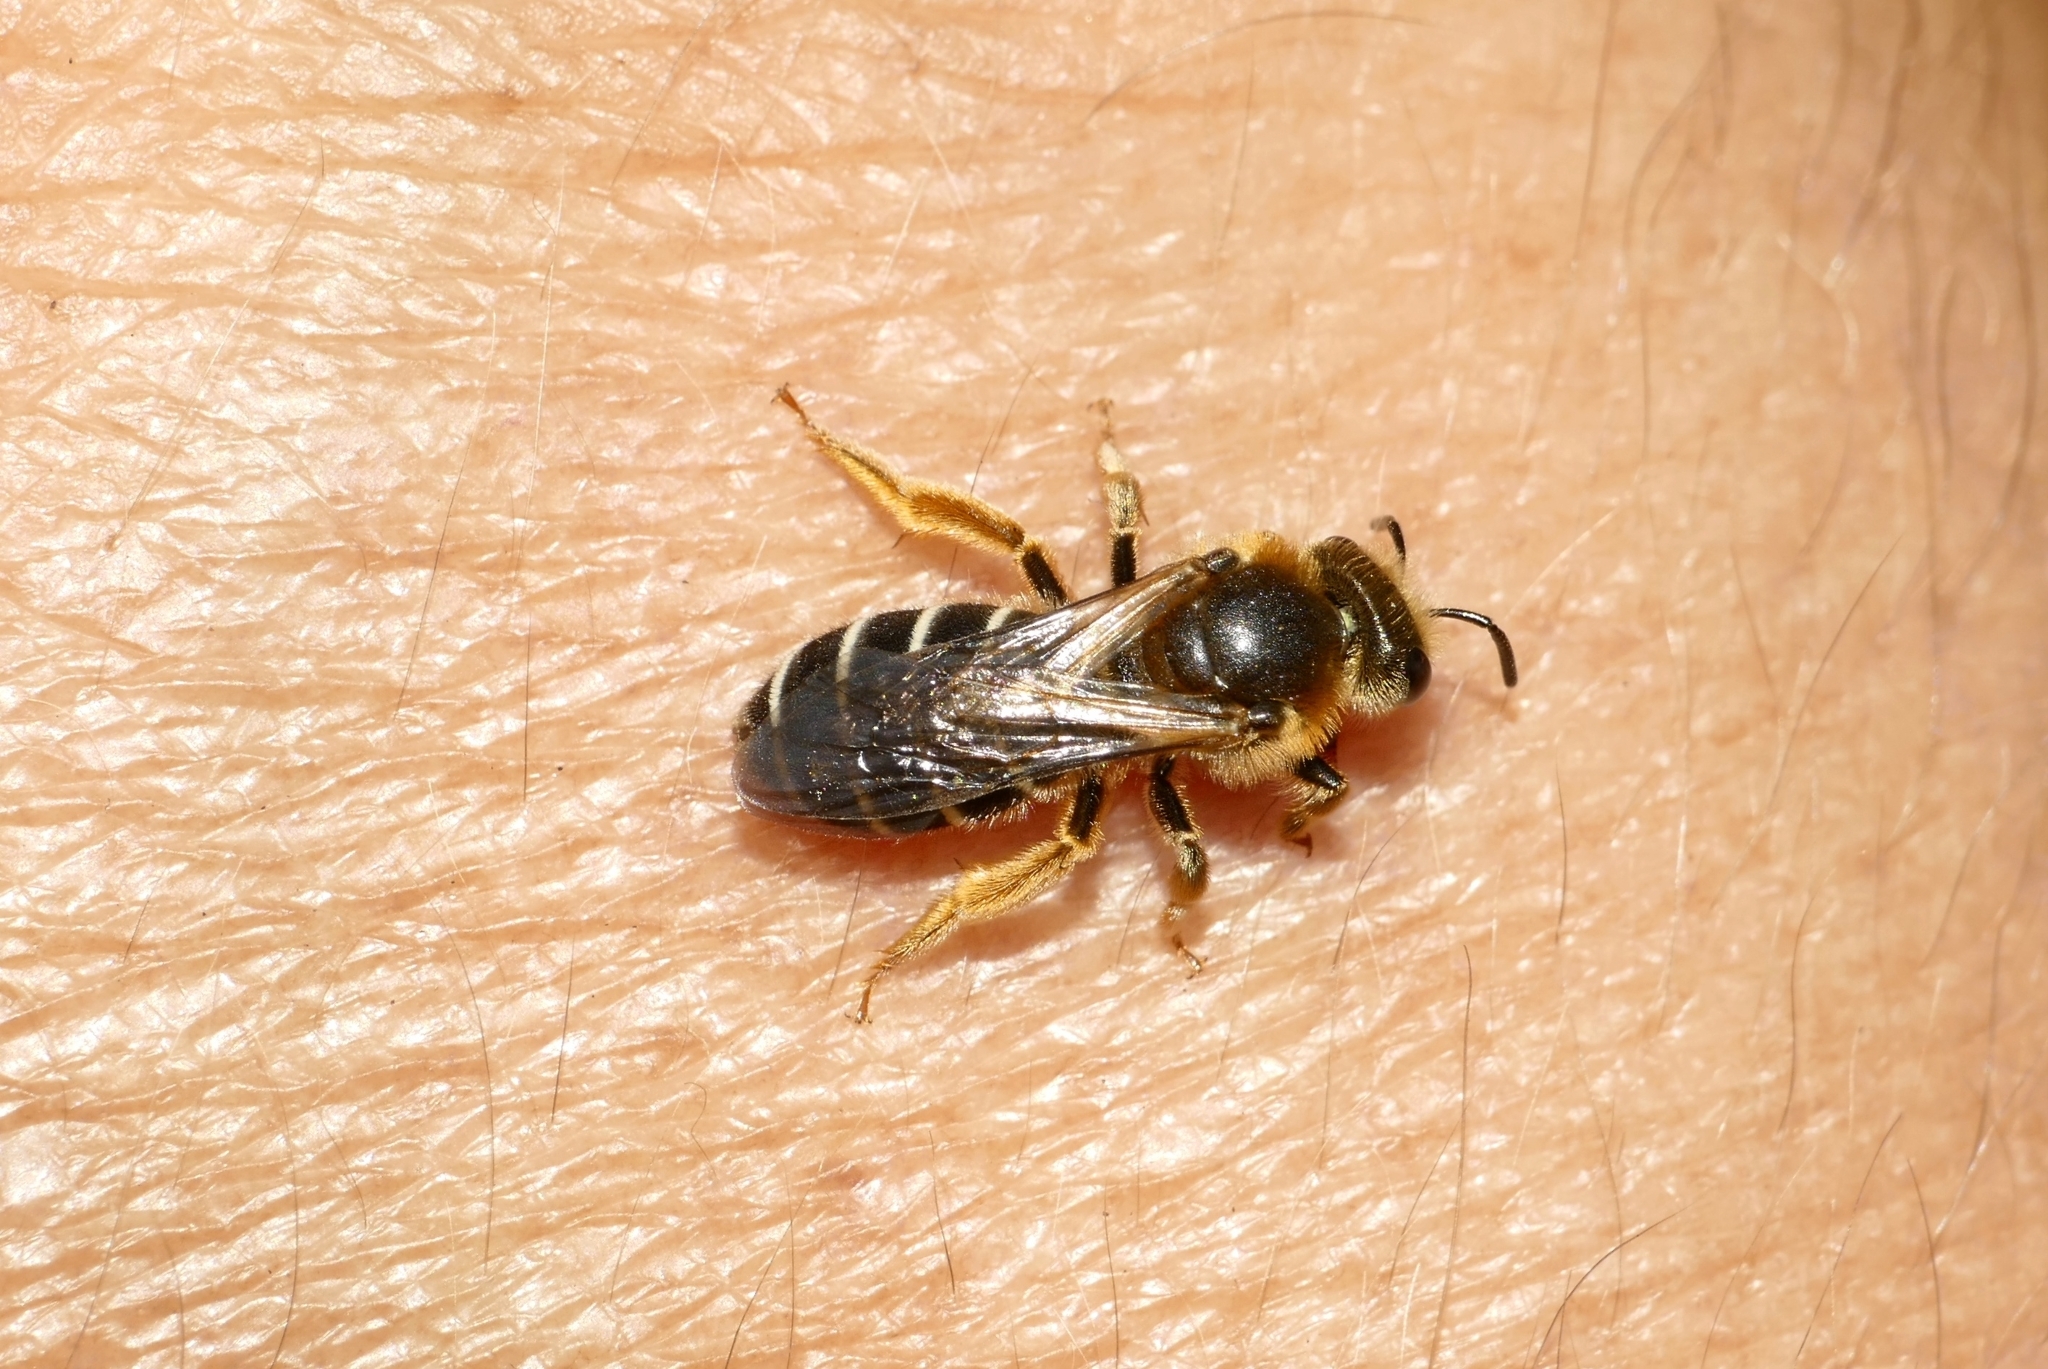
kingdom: Animalia
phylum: Arthropoda
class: Insecta
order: Hymenoptera
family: Halictidae
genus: Halictus
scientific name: Halictus rubicundus
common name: Orange-legged furrow bee
